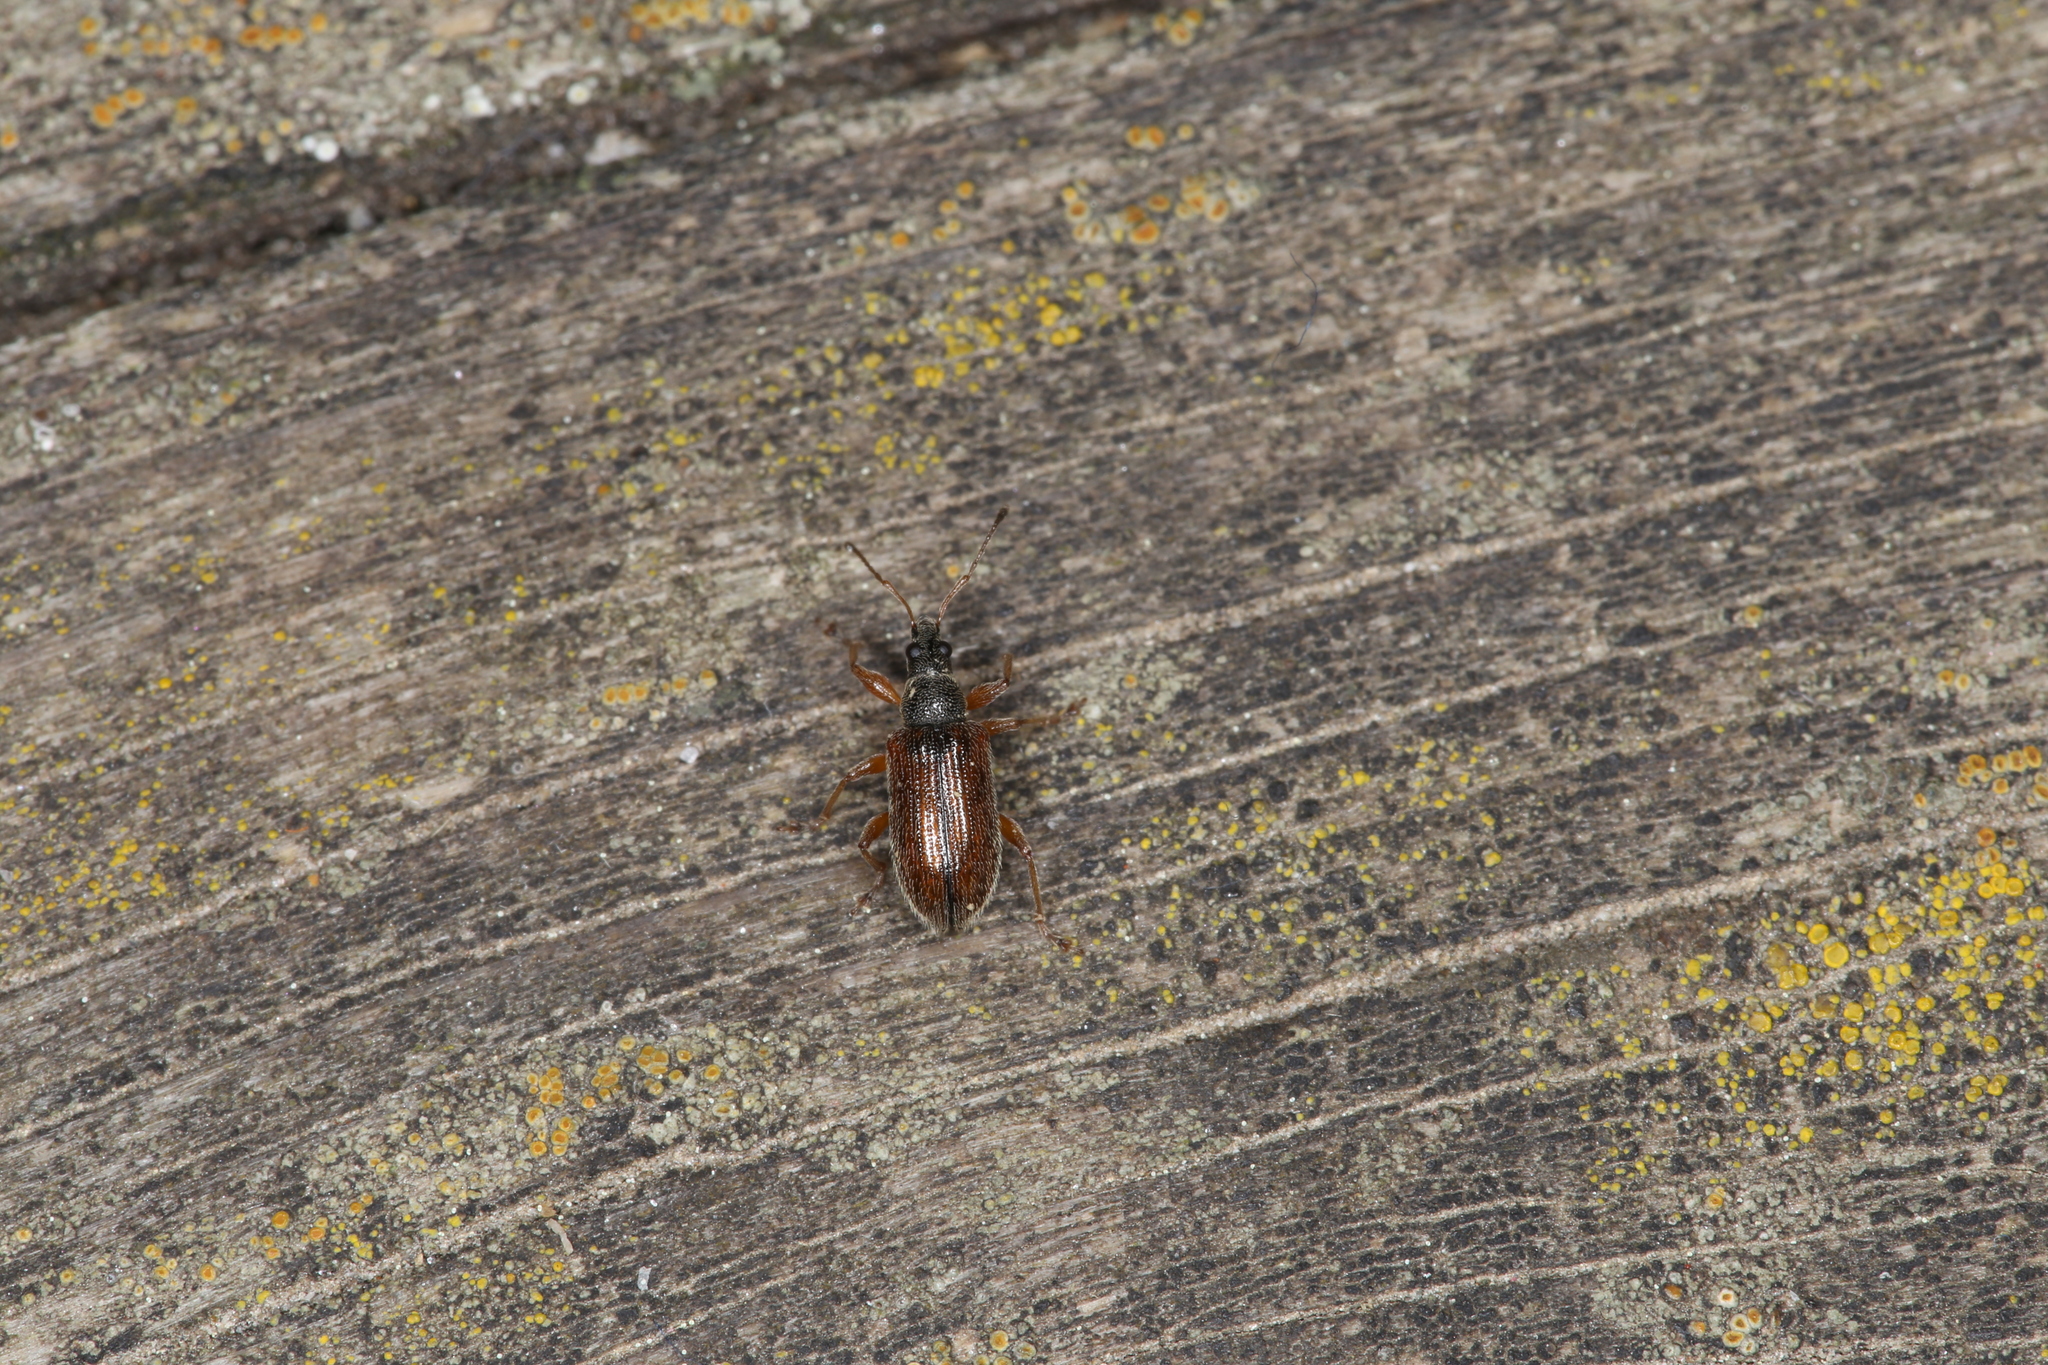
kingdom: Animalia
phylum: Arthropoda
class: Insecta
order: Coleoptera
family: Curculionidae
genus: Phyllobius
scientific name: Phyllobius oblongus
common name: Brown leaf weevil
